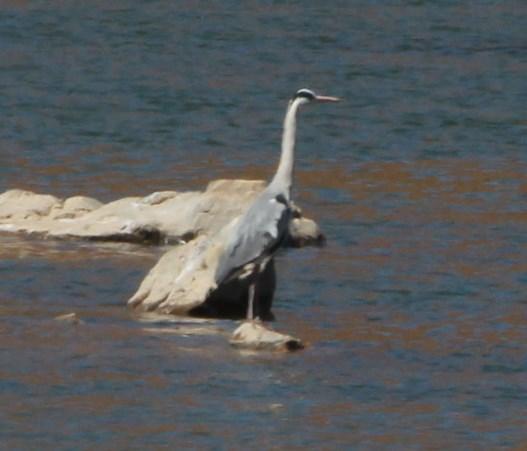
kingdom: Animalia
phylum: Chordata
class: Aves
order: Pelecaniformes
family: Ardeidae
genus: Ardea
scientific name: Ardea cinerea
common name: Grey heron
